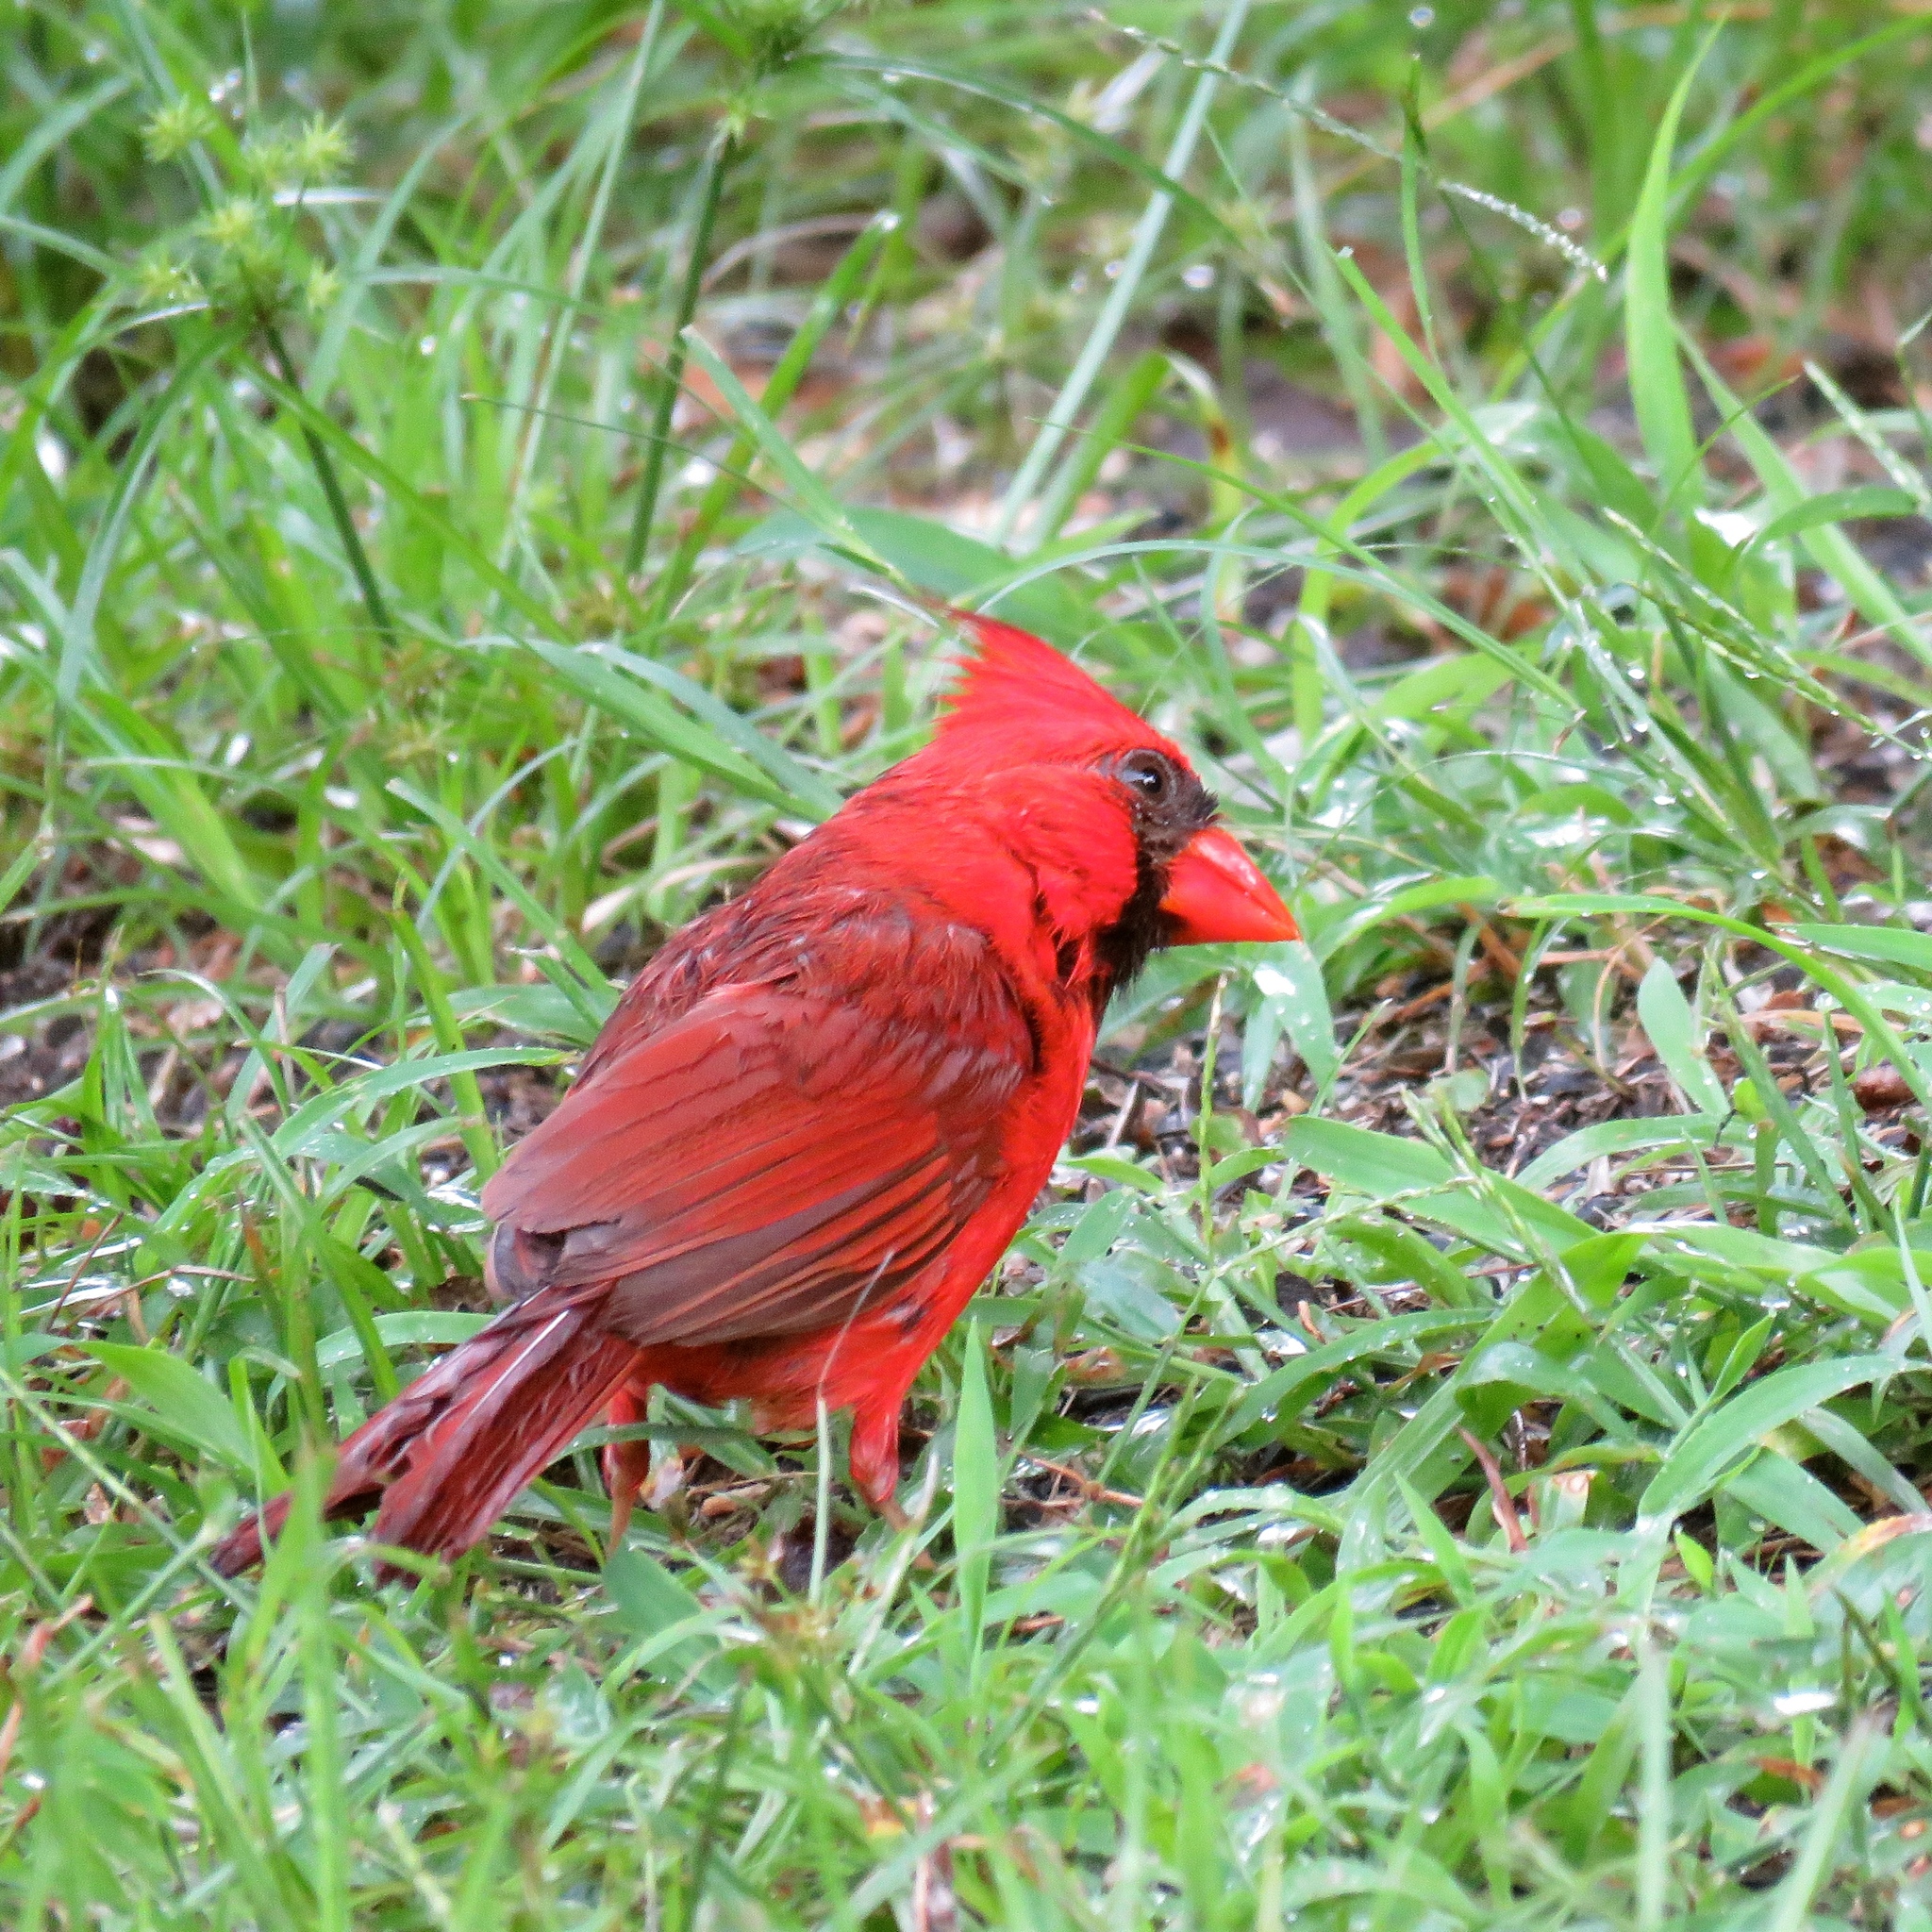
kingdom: Animalia
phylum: Chordata
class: Aves
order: Passeriformes
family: Cardinalidae
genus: Cardinalis
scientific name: Cardinalis cardinalis
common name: Northern cardinal
